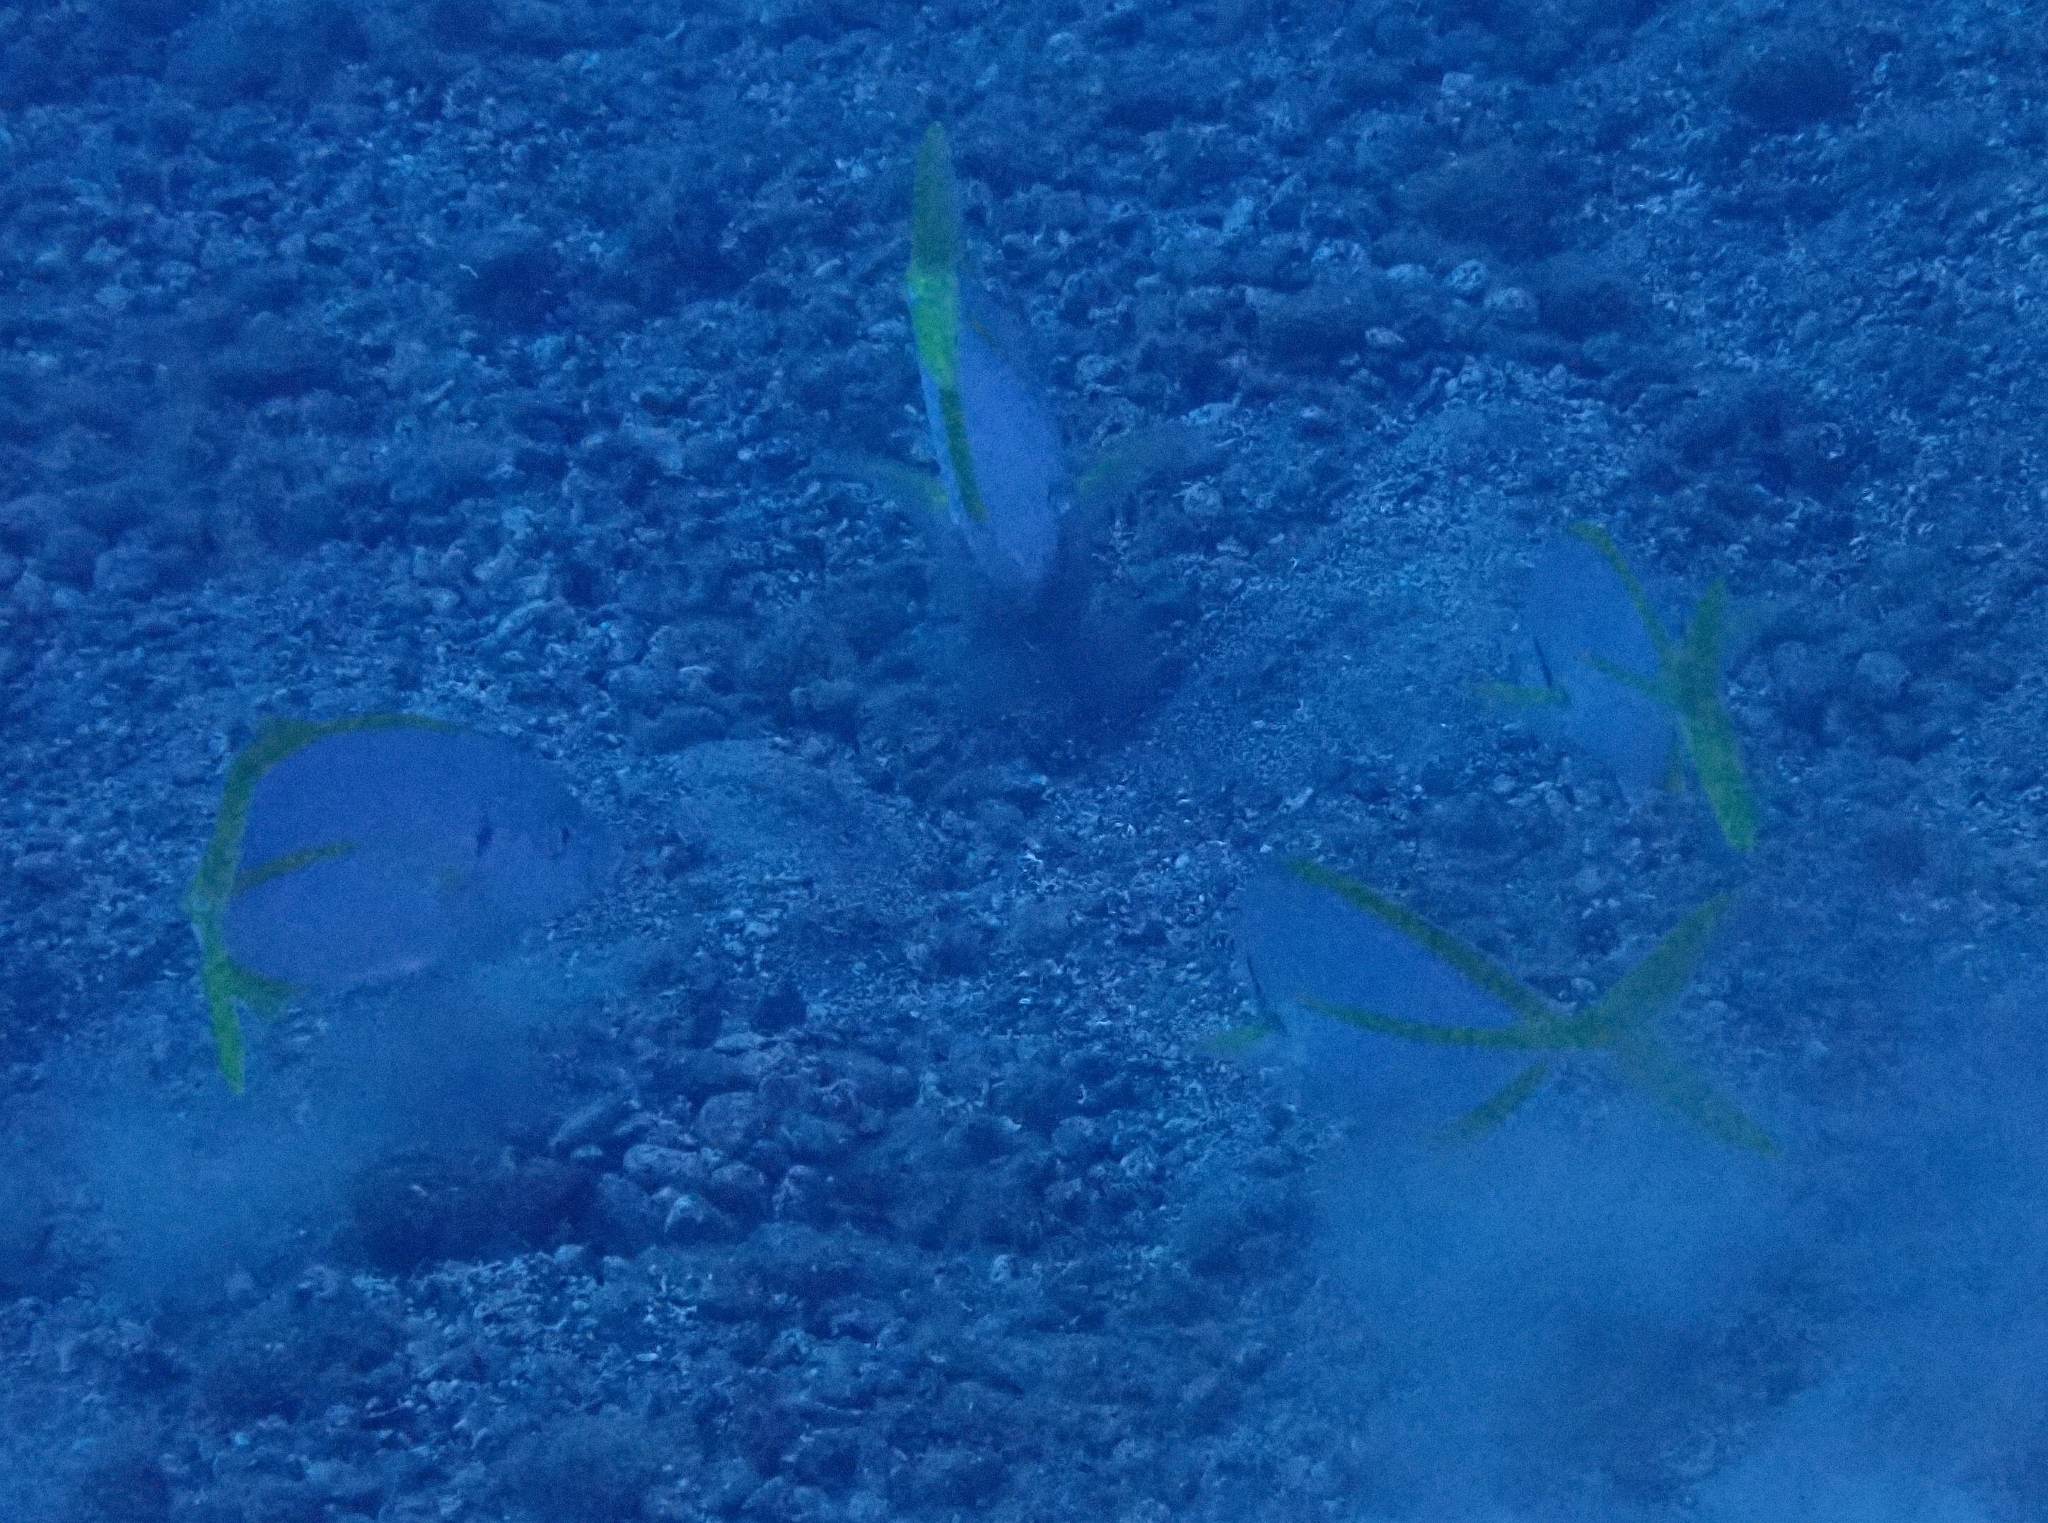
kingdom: Animalia
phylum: Chordata
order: Perciformes
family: Carangidae
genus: Pseudocaranx
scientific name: Pseudocaranx dentex
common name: White trevally
